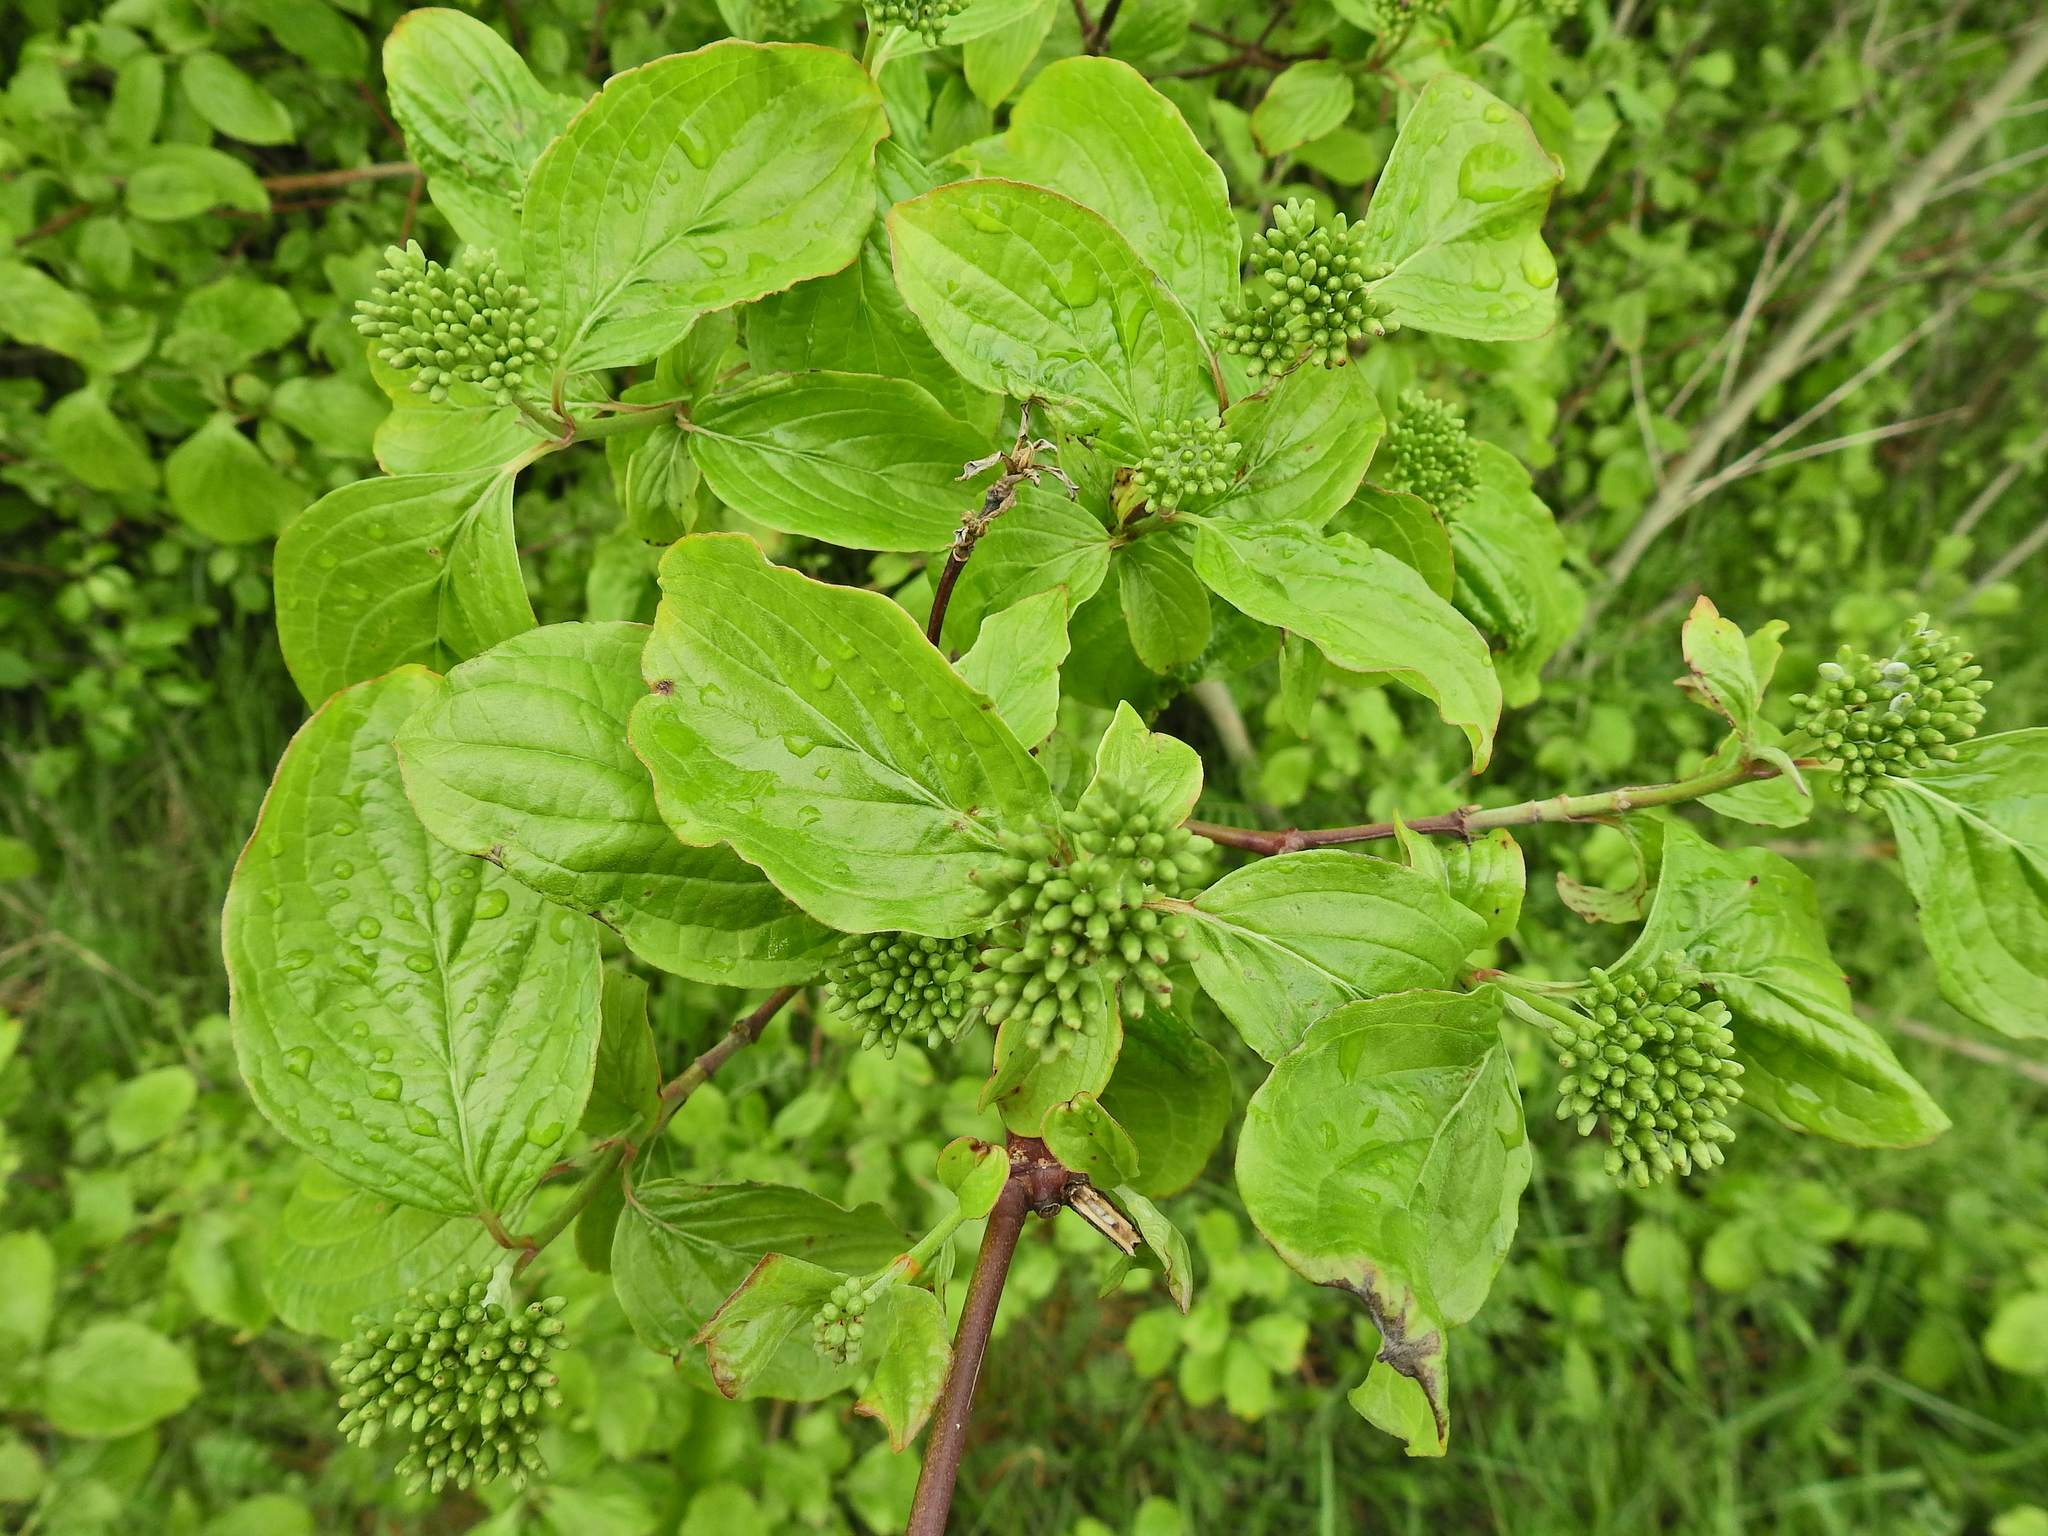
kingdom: Plantae
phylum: Tracheophyta
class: Magnoliopsida
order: Cornales
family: Cornaceae
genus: Cornus
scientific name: Cornus sanguinea
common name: Dogwood
